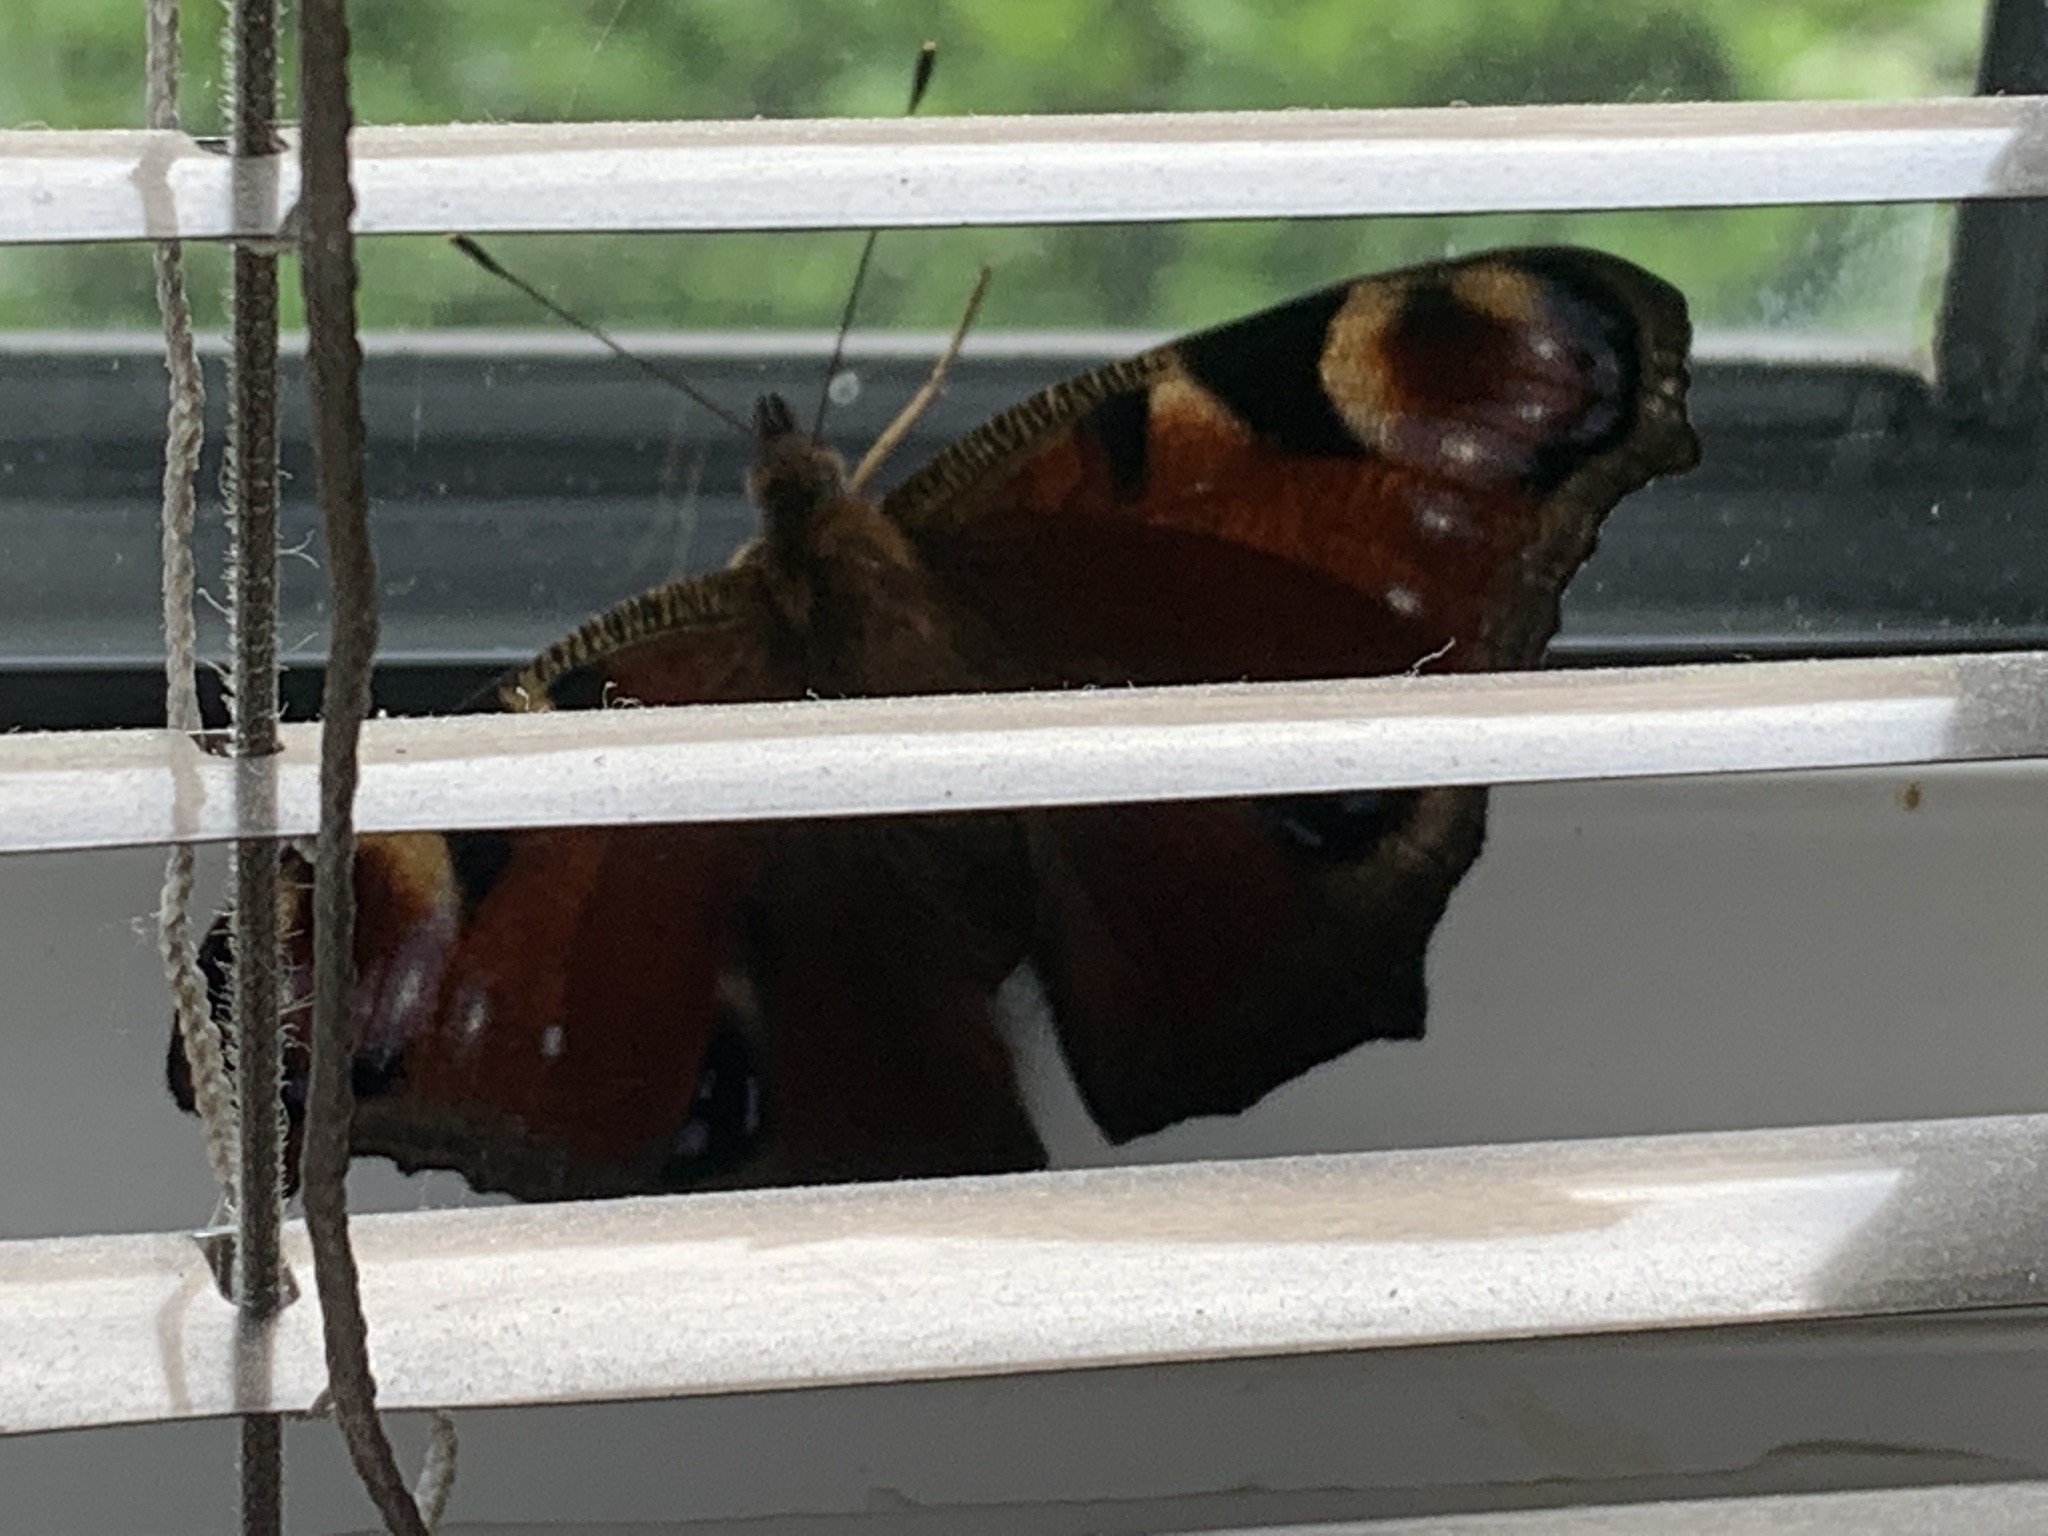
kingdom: Animalia
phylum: Arthropoda
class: Insecta
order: Lepidoptera
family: Nymphalidae
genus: Aglais
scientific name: Aglais io
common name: Peacock
